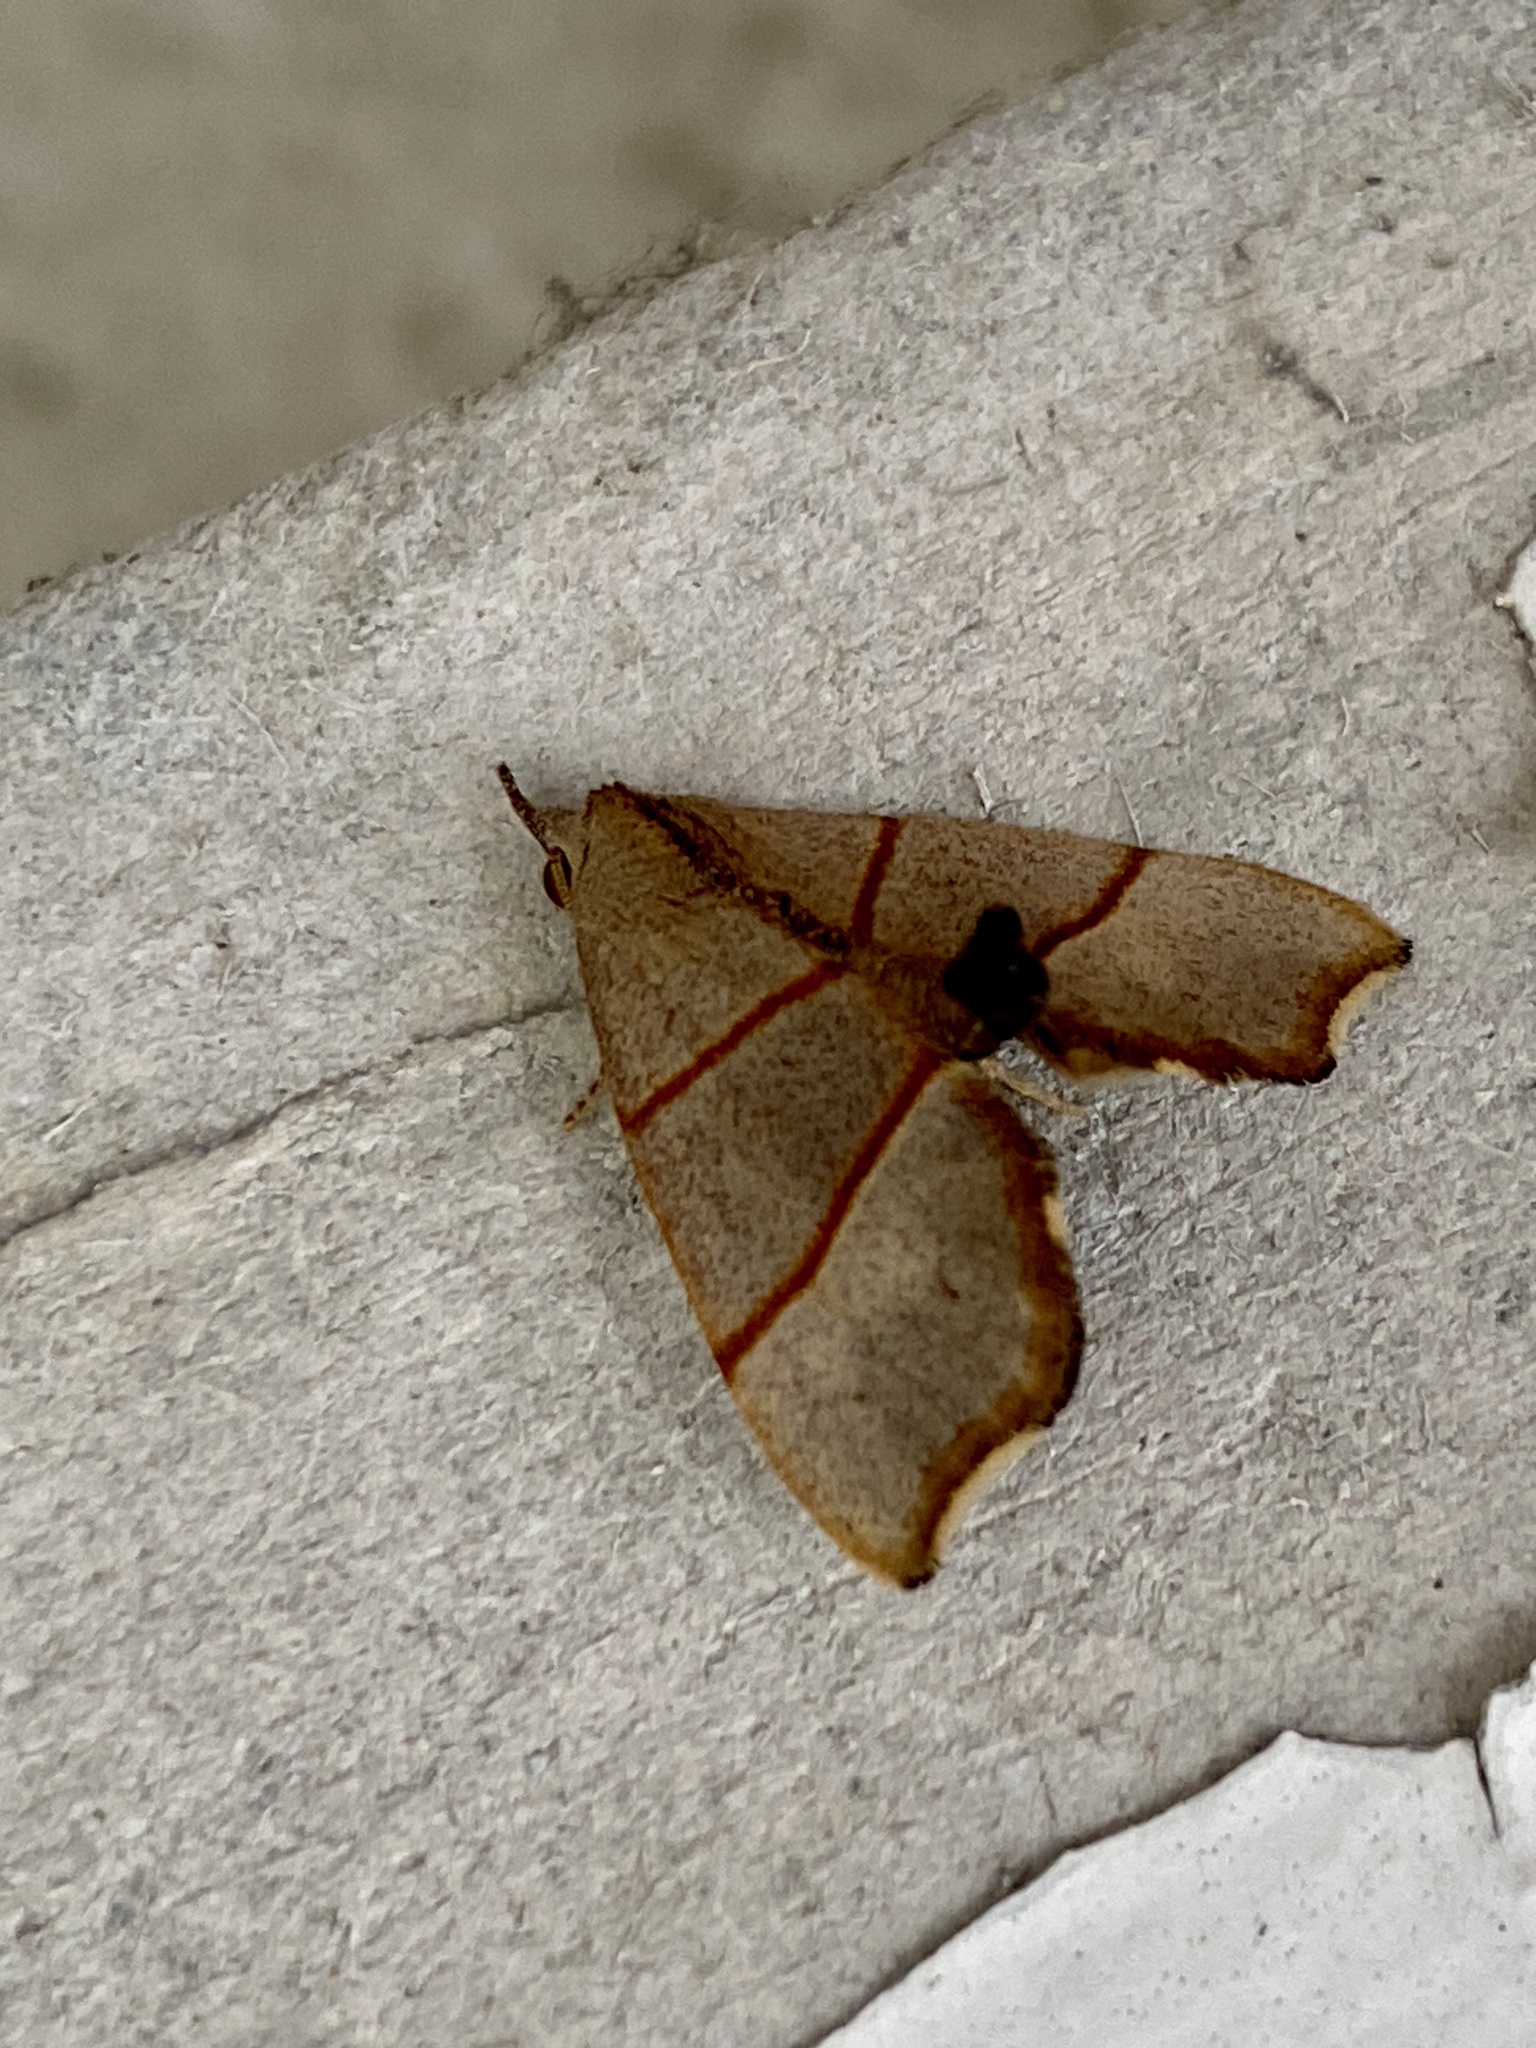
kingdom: Animalia
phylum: Arthropoda
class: Insecta
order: Lepidoptera
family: Noctuidae
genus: Gonepatica
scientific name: Gonepatica opalina
